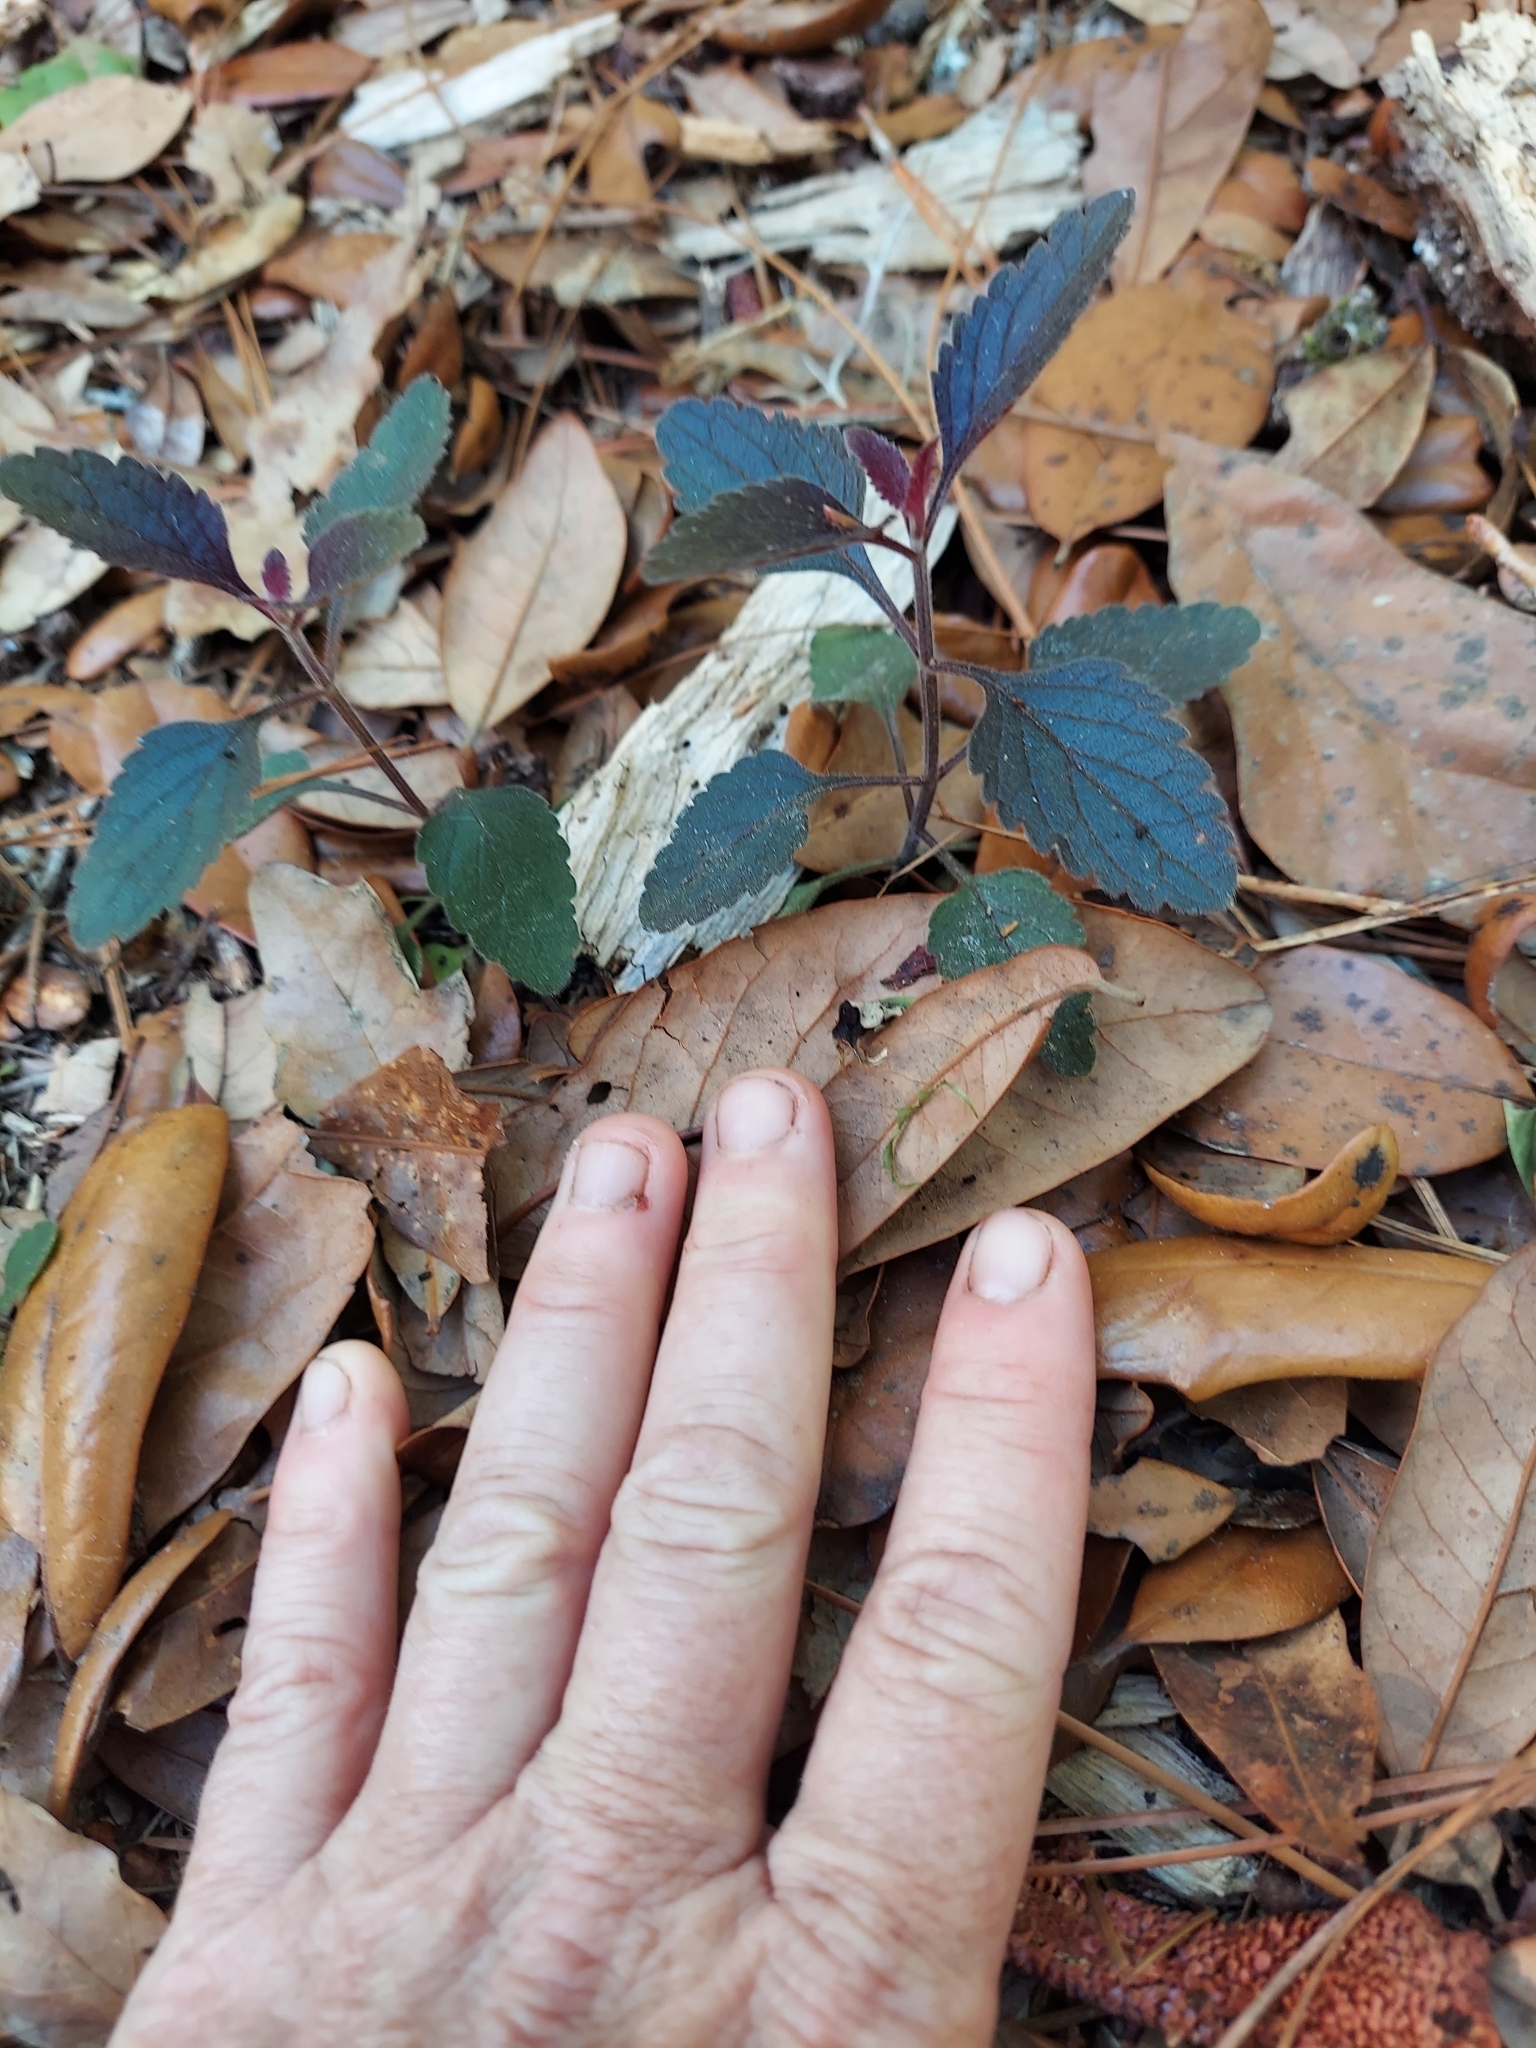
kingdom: Plantae
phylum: Tracheophyta
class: Magnoliopsida
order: Lamiales
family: Lamiaceae
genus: Scutellaria
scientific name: Scutellaria arenicola
